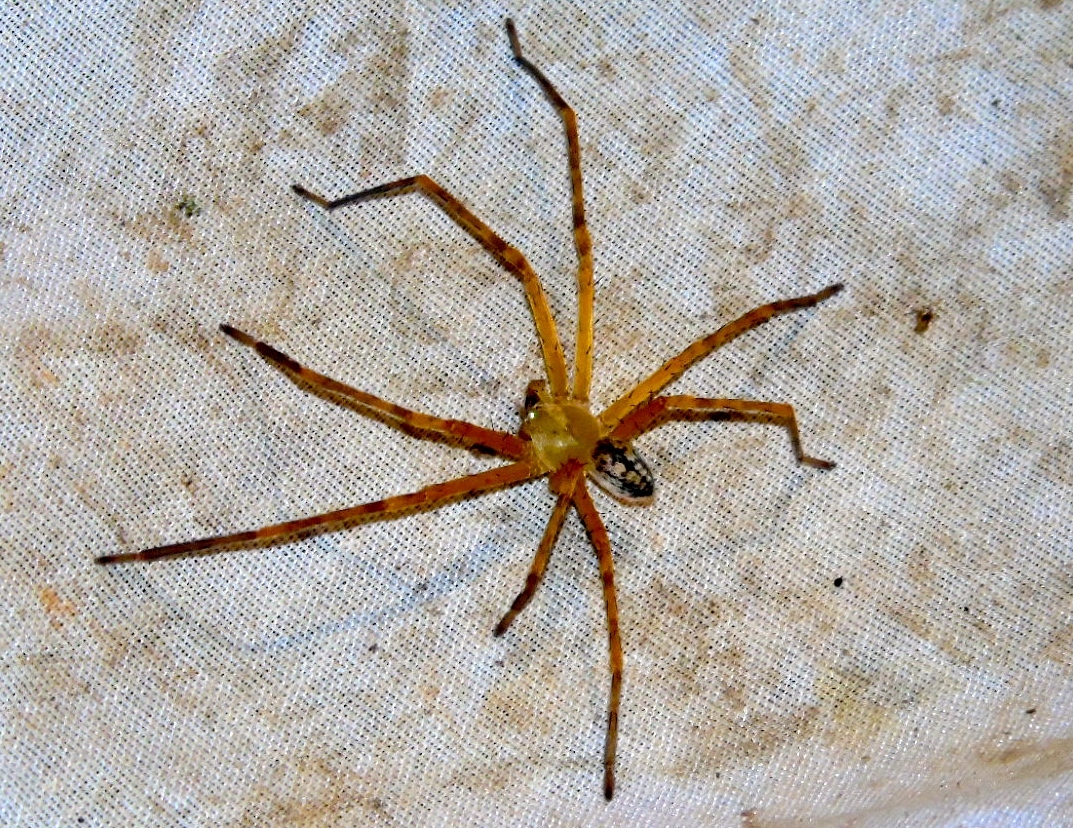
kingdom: Animalia
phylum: Arthropoda
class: Arachnida
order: Araneae
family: Sparassidae
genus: Curicaberis
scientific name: Curicaberis culiacan
